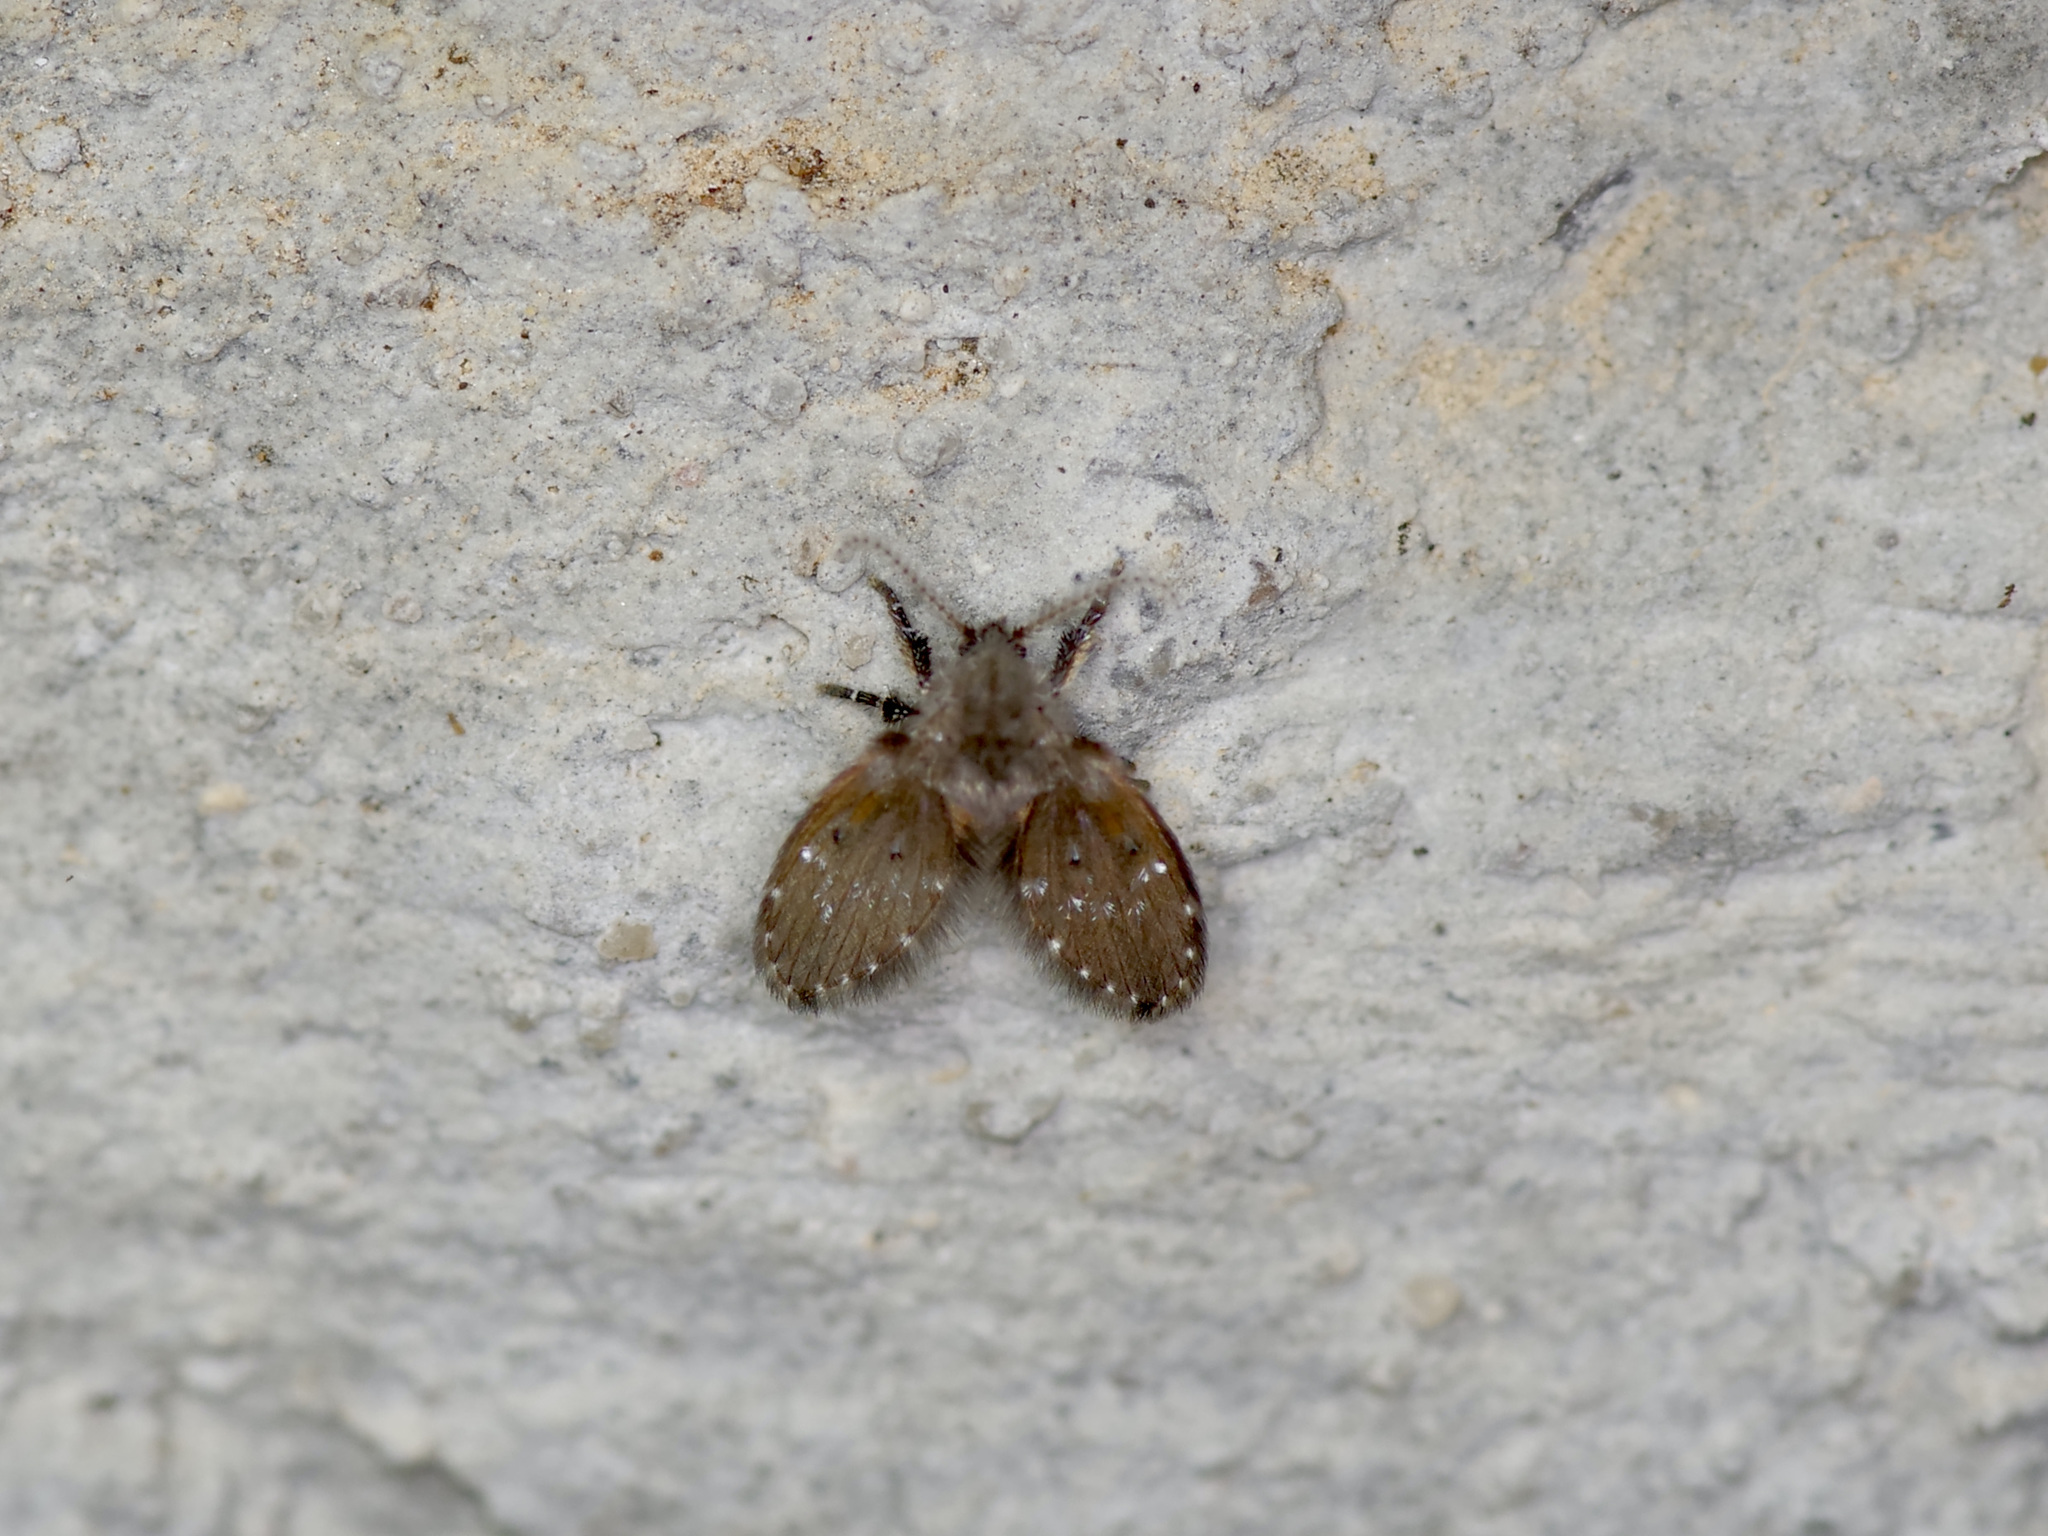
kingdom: Animalia
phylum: Arthropoda
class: Insecta
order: Diptera
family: Psychodidae
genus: Clogmia
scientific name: Clogmia albipunctatus
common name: White-spotted moth fly
